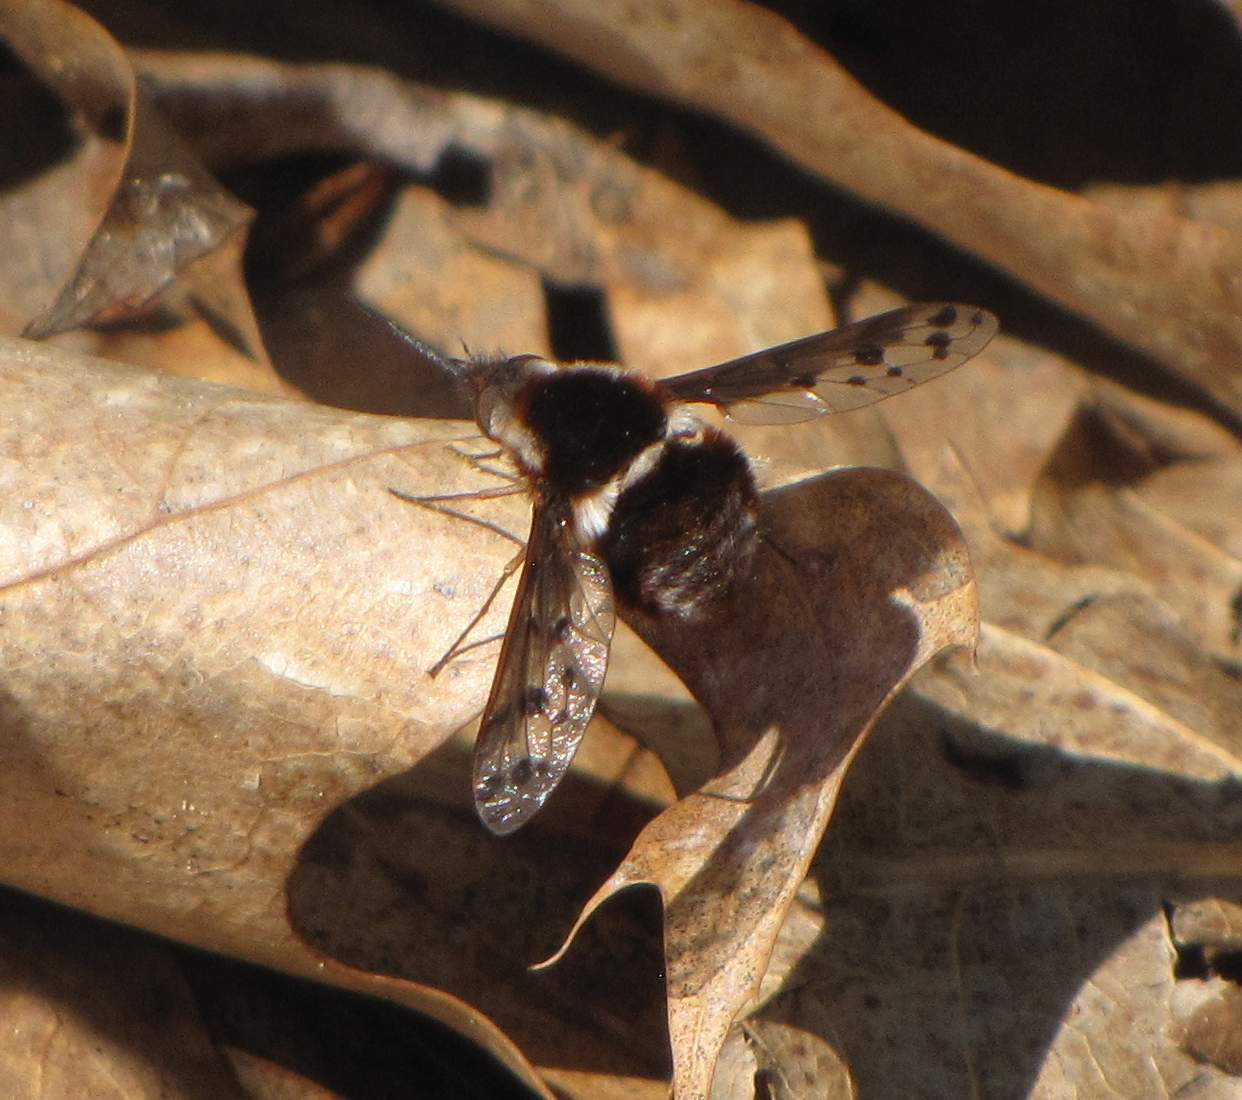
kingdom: Animalia
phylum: Arthropoda
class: Insecta
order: Diptera
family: Bombyliidae
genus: Bombylius
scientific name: Bombylius pygmaeus
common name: Pygmy bee fly
